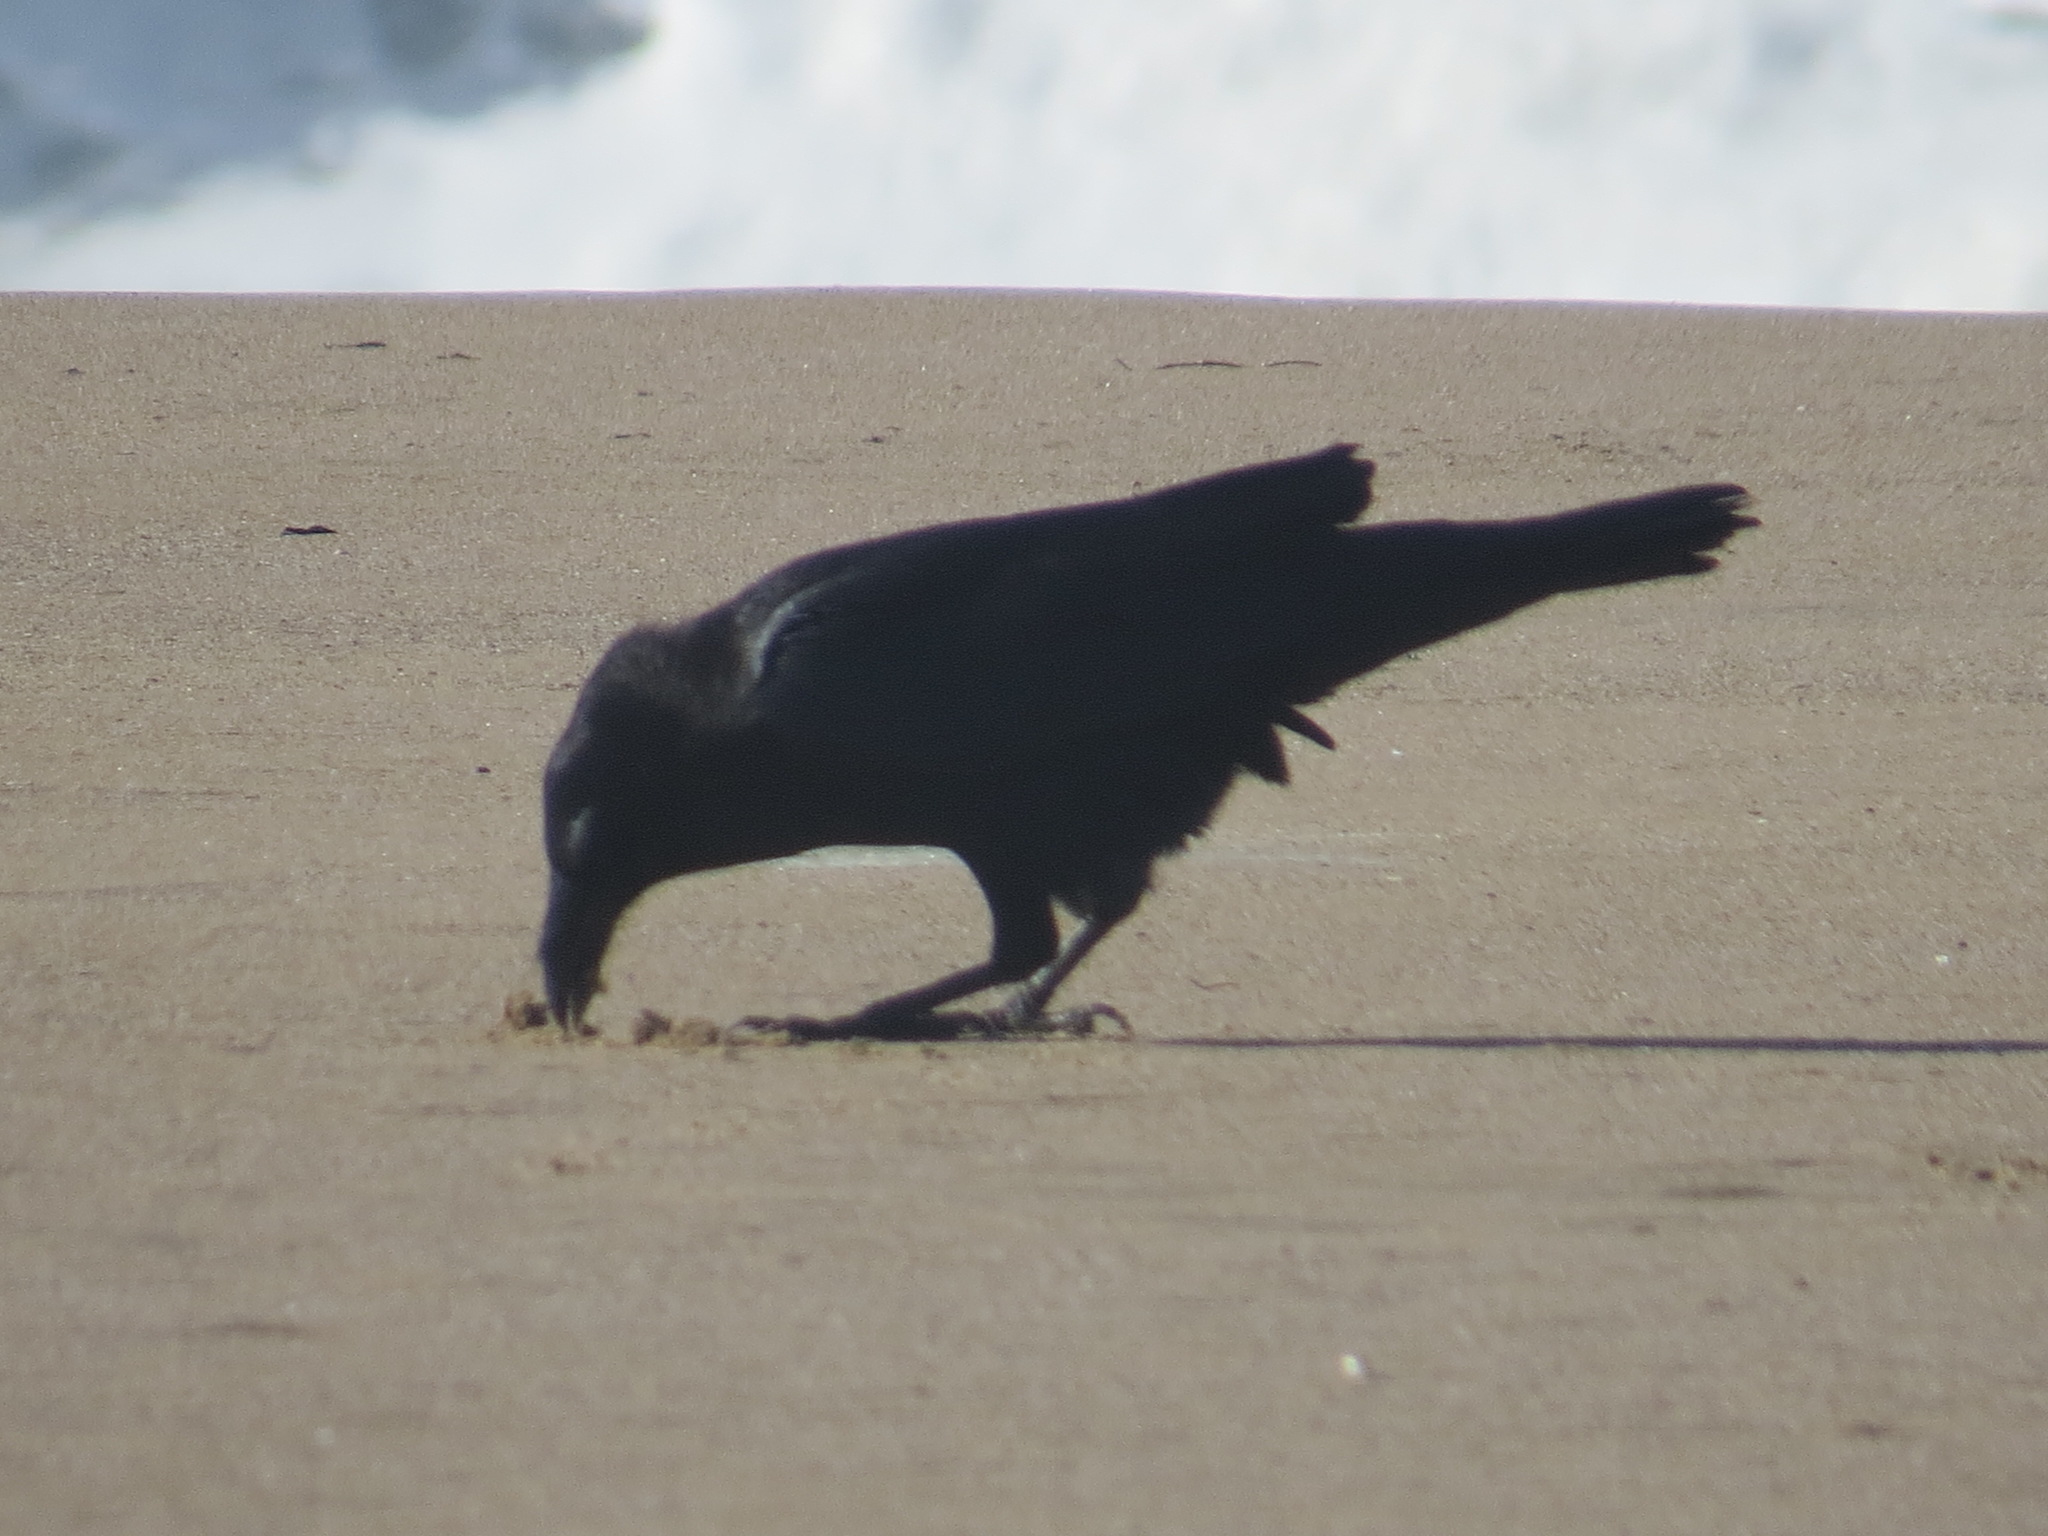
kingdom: Animalia
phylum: Chordata
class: Aves
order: Passeriformes
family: Corvidae
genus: Corvus
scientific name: Corvus corax
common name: Common raven
